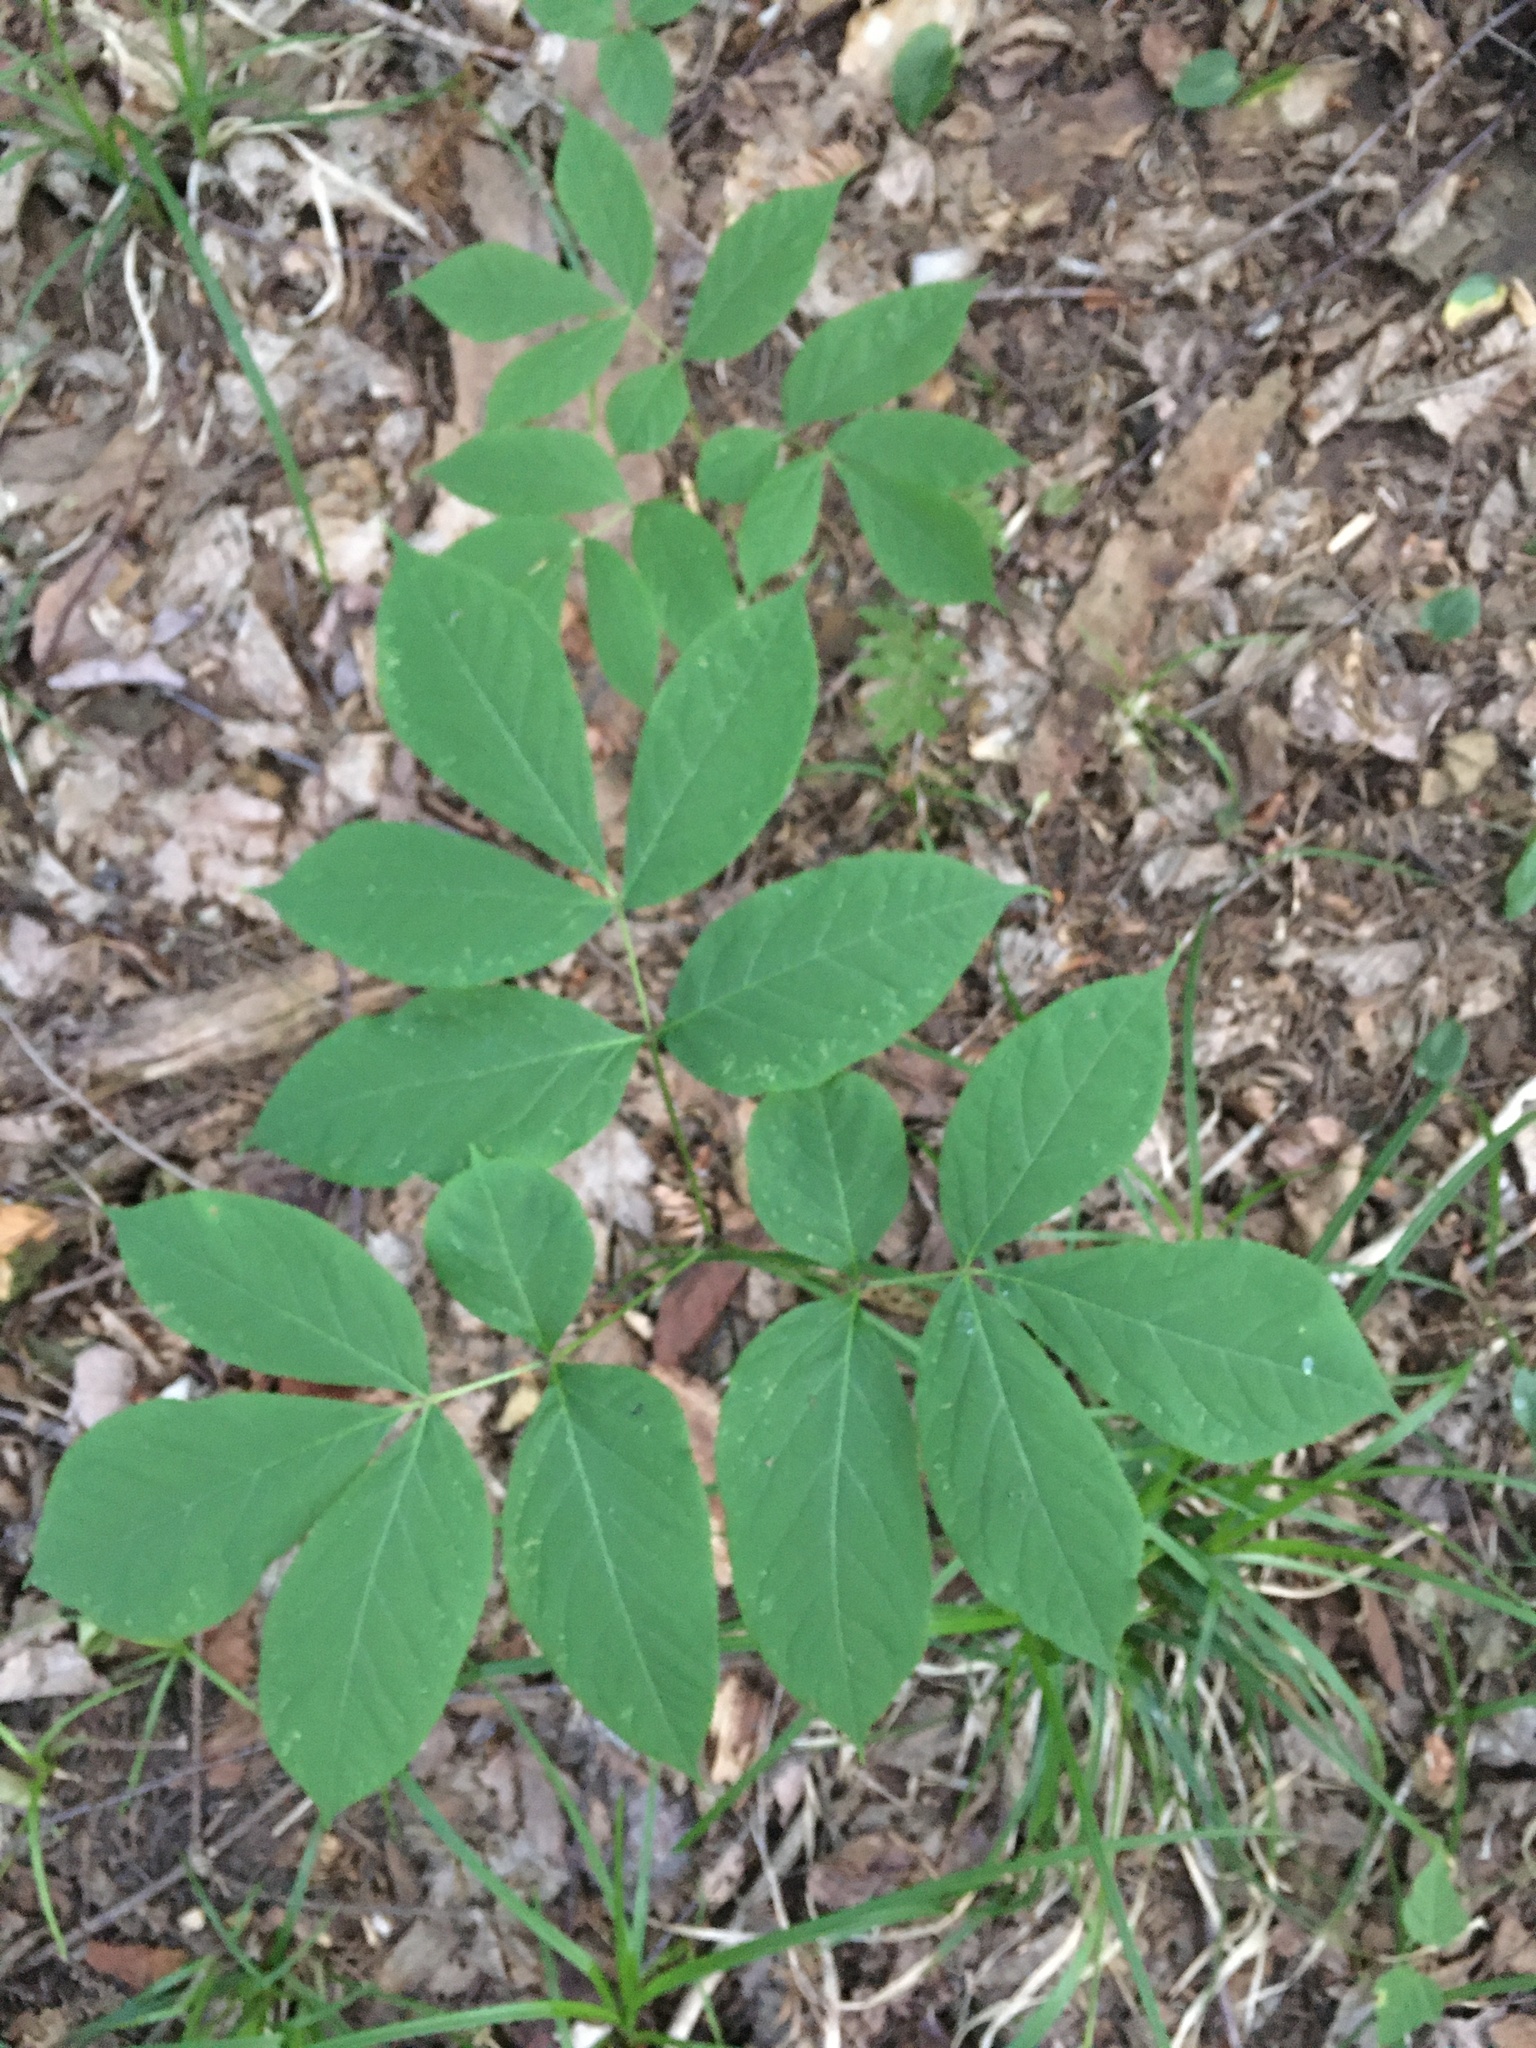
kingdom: Plantae
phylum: Tracheophyta
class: Magnoliopsida
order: Apiales
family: Araliaceae
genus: Aralia
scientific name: Aralia nudicaulis
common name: Wild sarsaparilla
